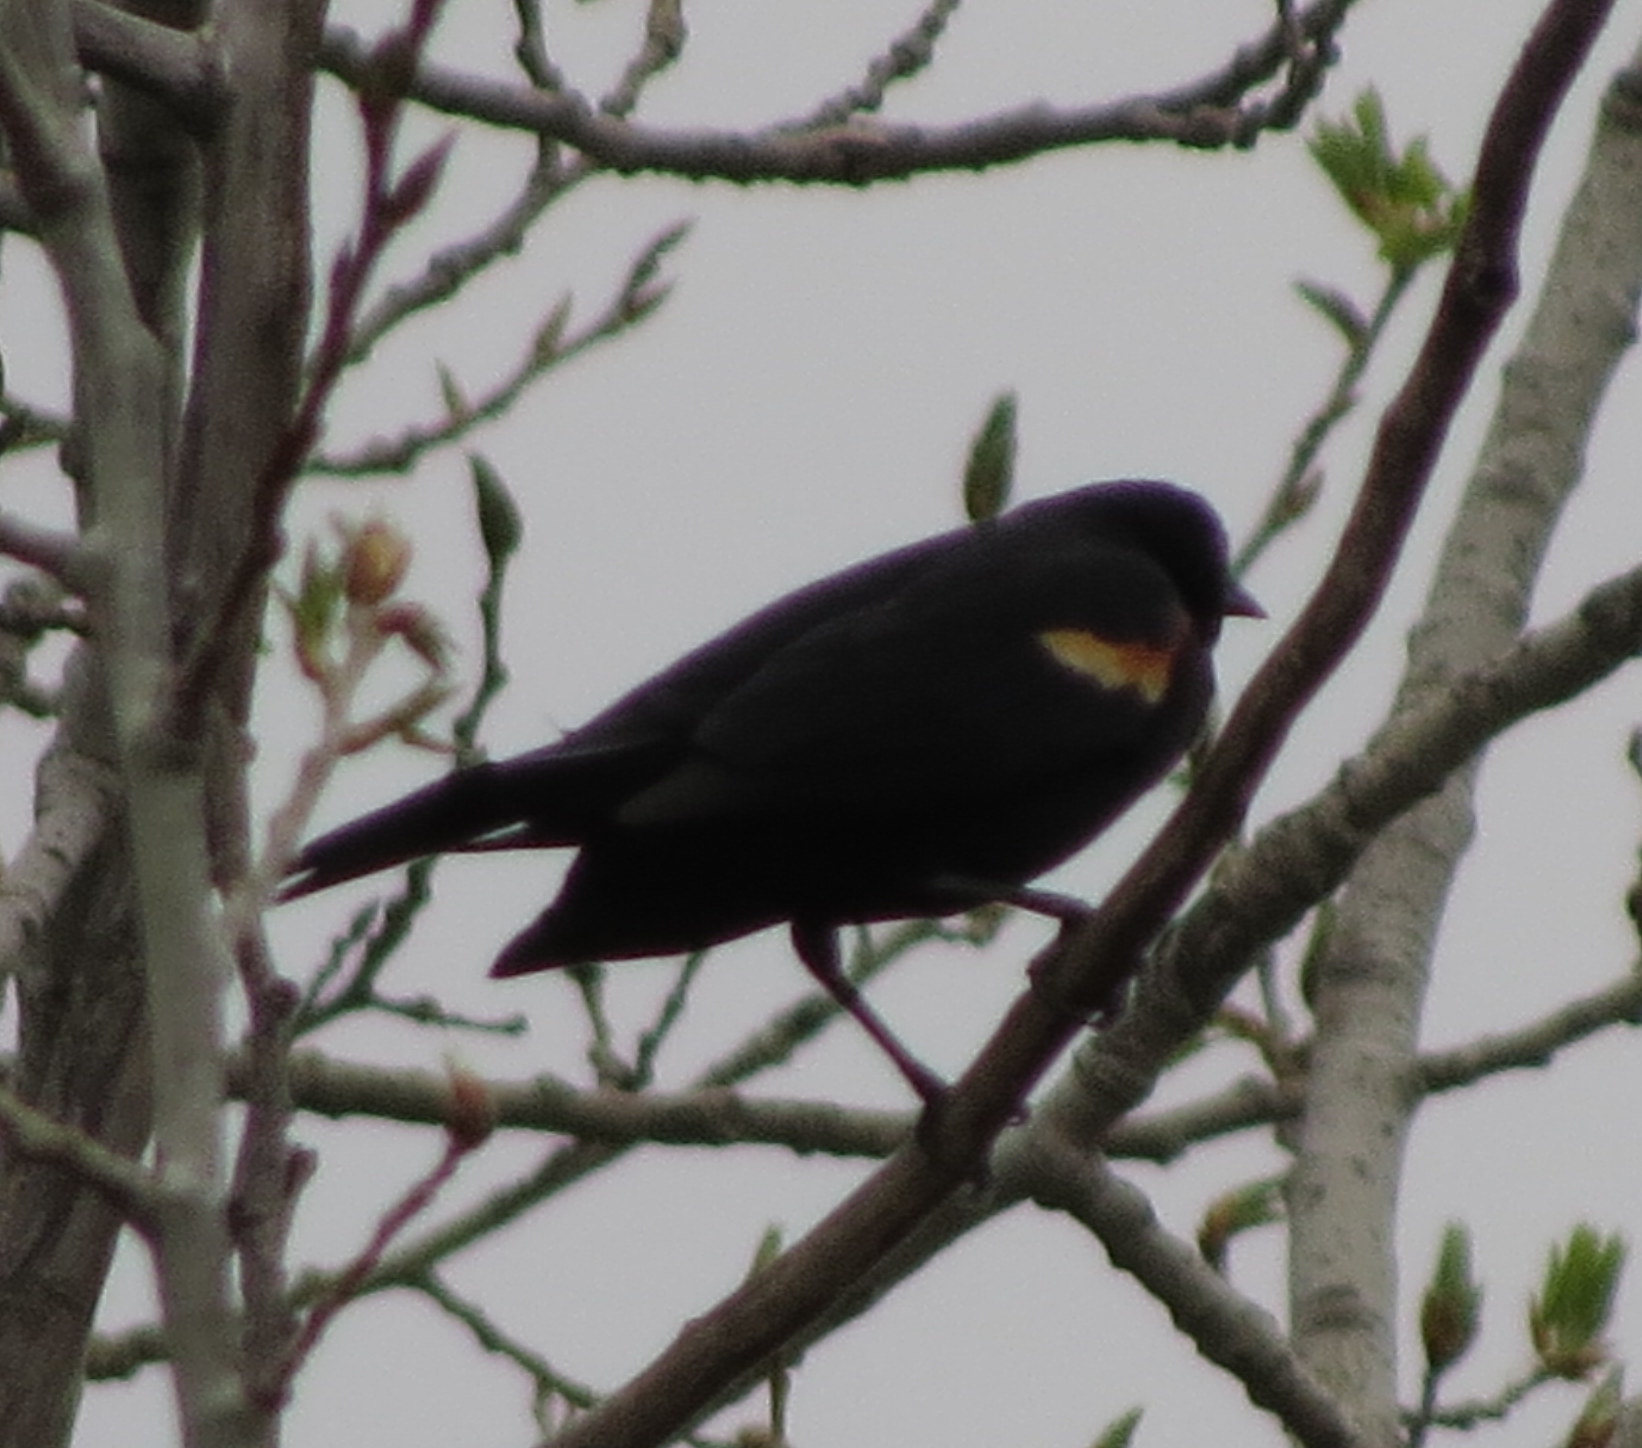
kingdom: Animalia
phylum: Chordata
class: Aves
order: Passeriformes
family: Icteridae
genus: Agelaius
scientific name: Agelaius phoeniceus
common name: Red-winged blackbird
